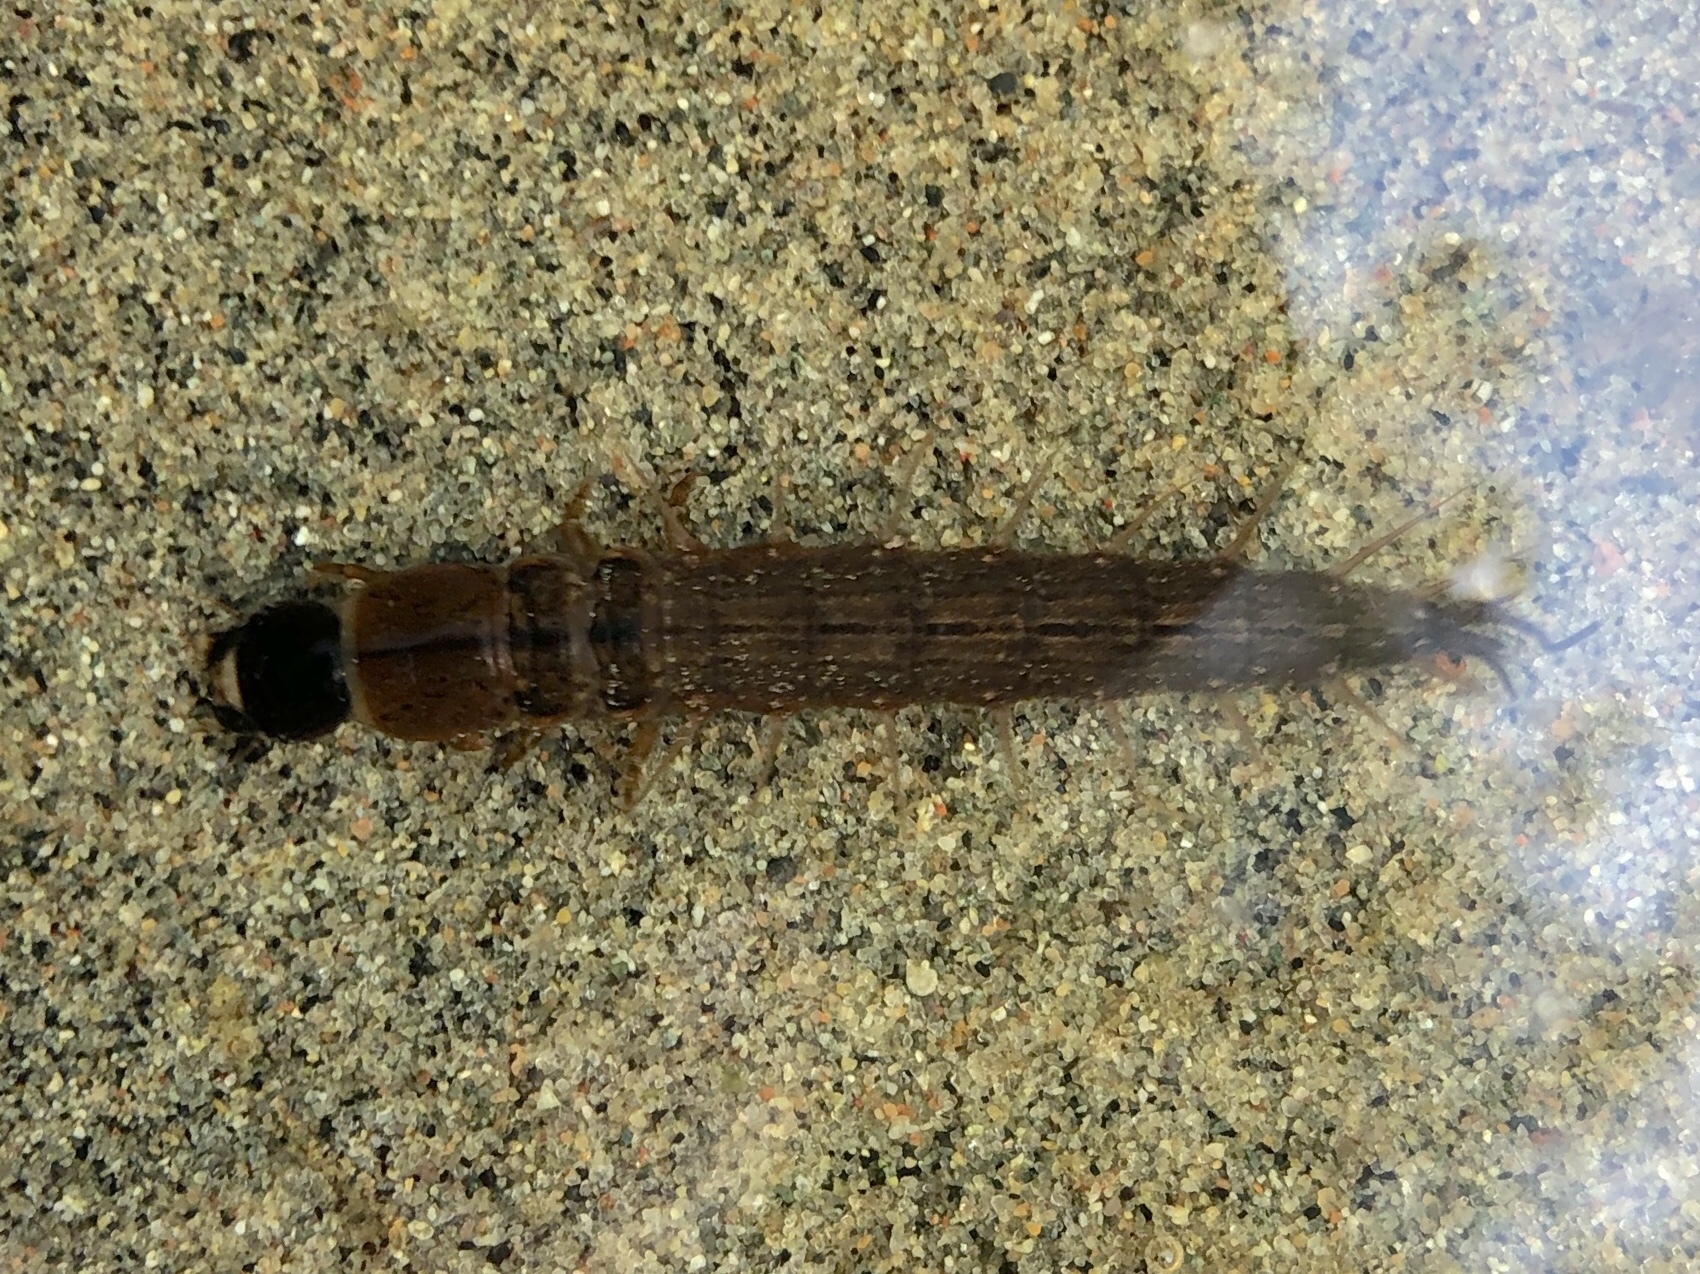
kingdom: Animalia
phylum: Arthropoda
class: Insecta
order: Megaloptera
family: Corydalidae
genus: Chauliodes
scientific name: Chauliodes rastricornis
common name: Spring fishfly
